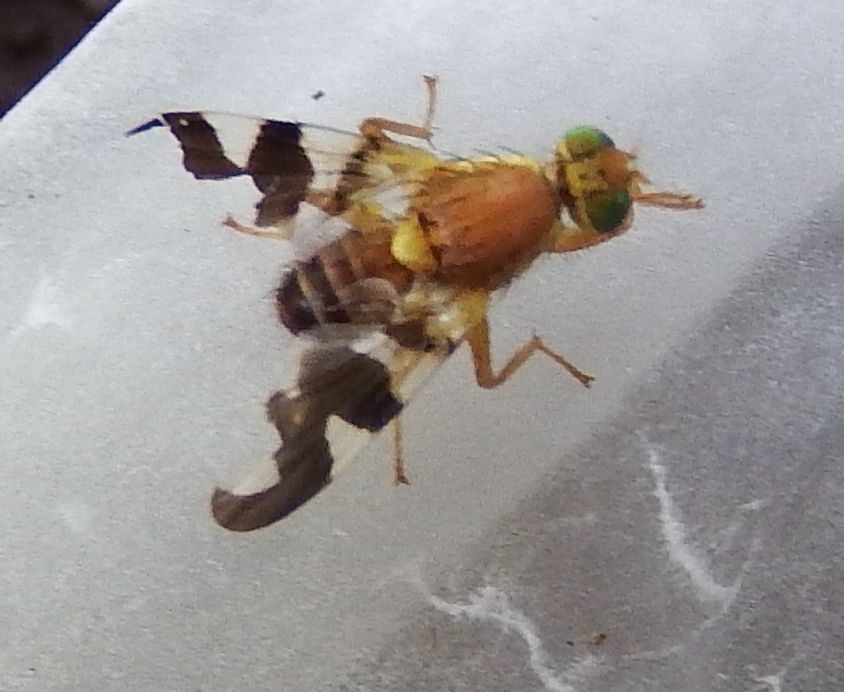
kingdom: Animalia
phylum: Arthropoda
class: Insecta
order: Diptera
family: Tephritidae
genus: Rhagoletis
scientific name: Rhagoletis suavis
